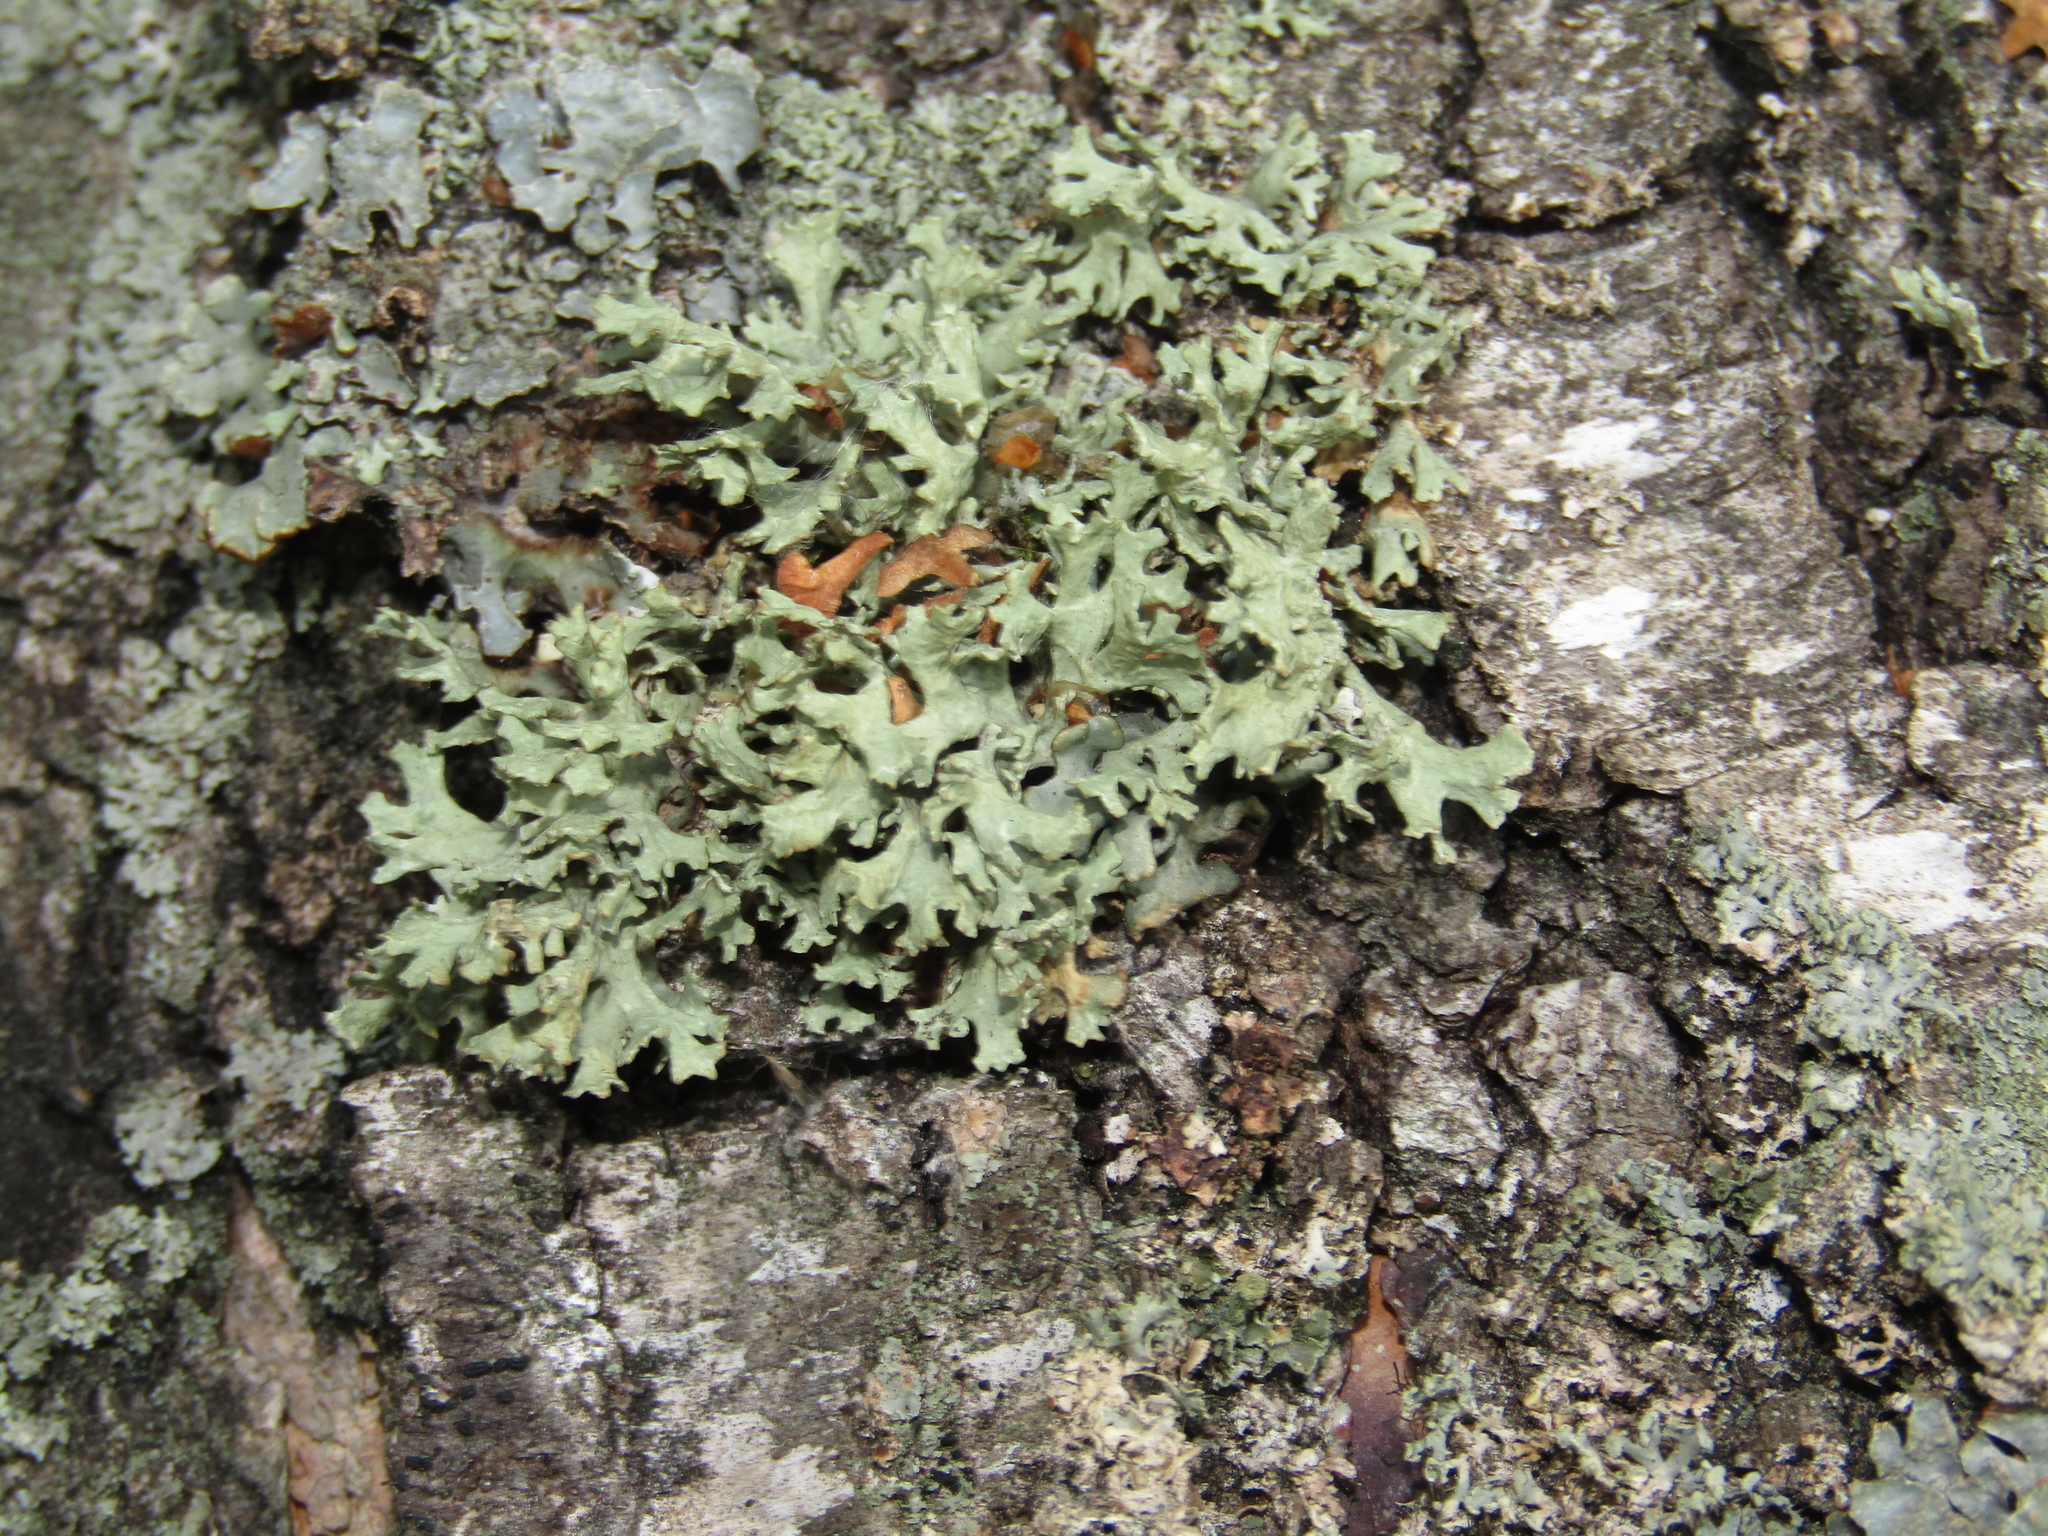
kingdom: Fungi
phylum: Ascomycota
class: Lecanoromycetes
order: Lecanorales
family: Parmeliaceae
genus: Evernia
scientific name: Evernia prunastri
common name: Oak moss
